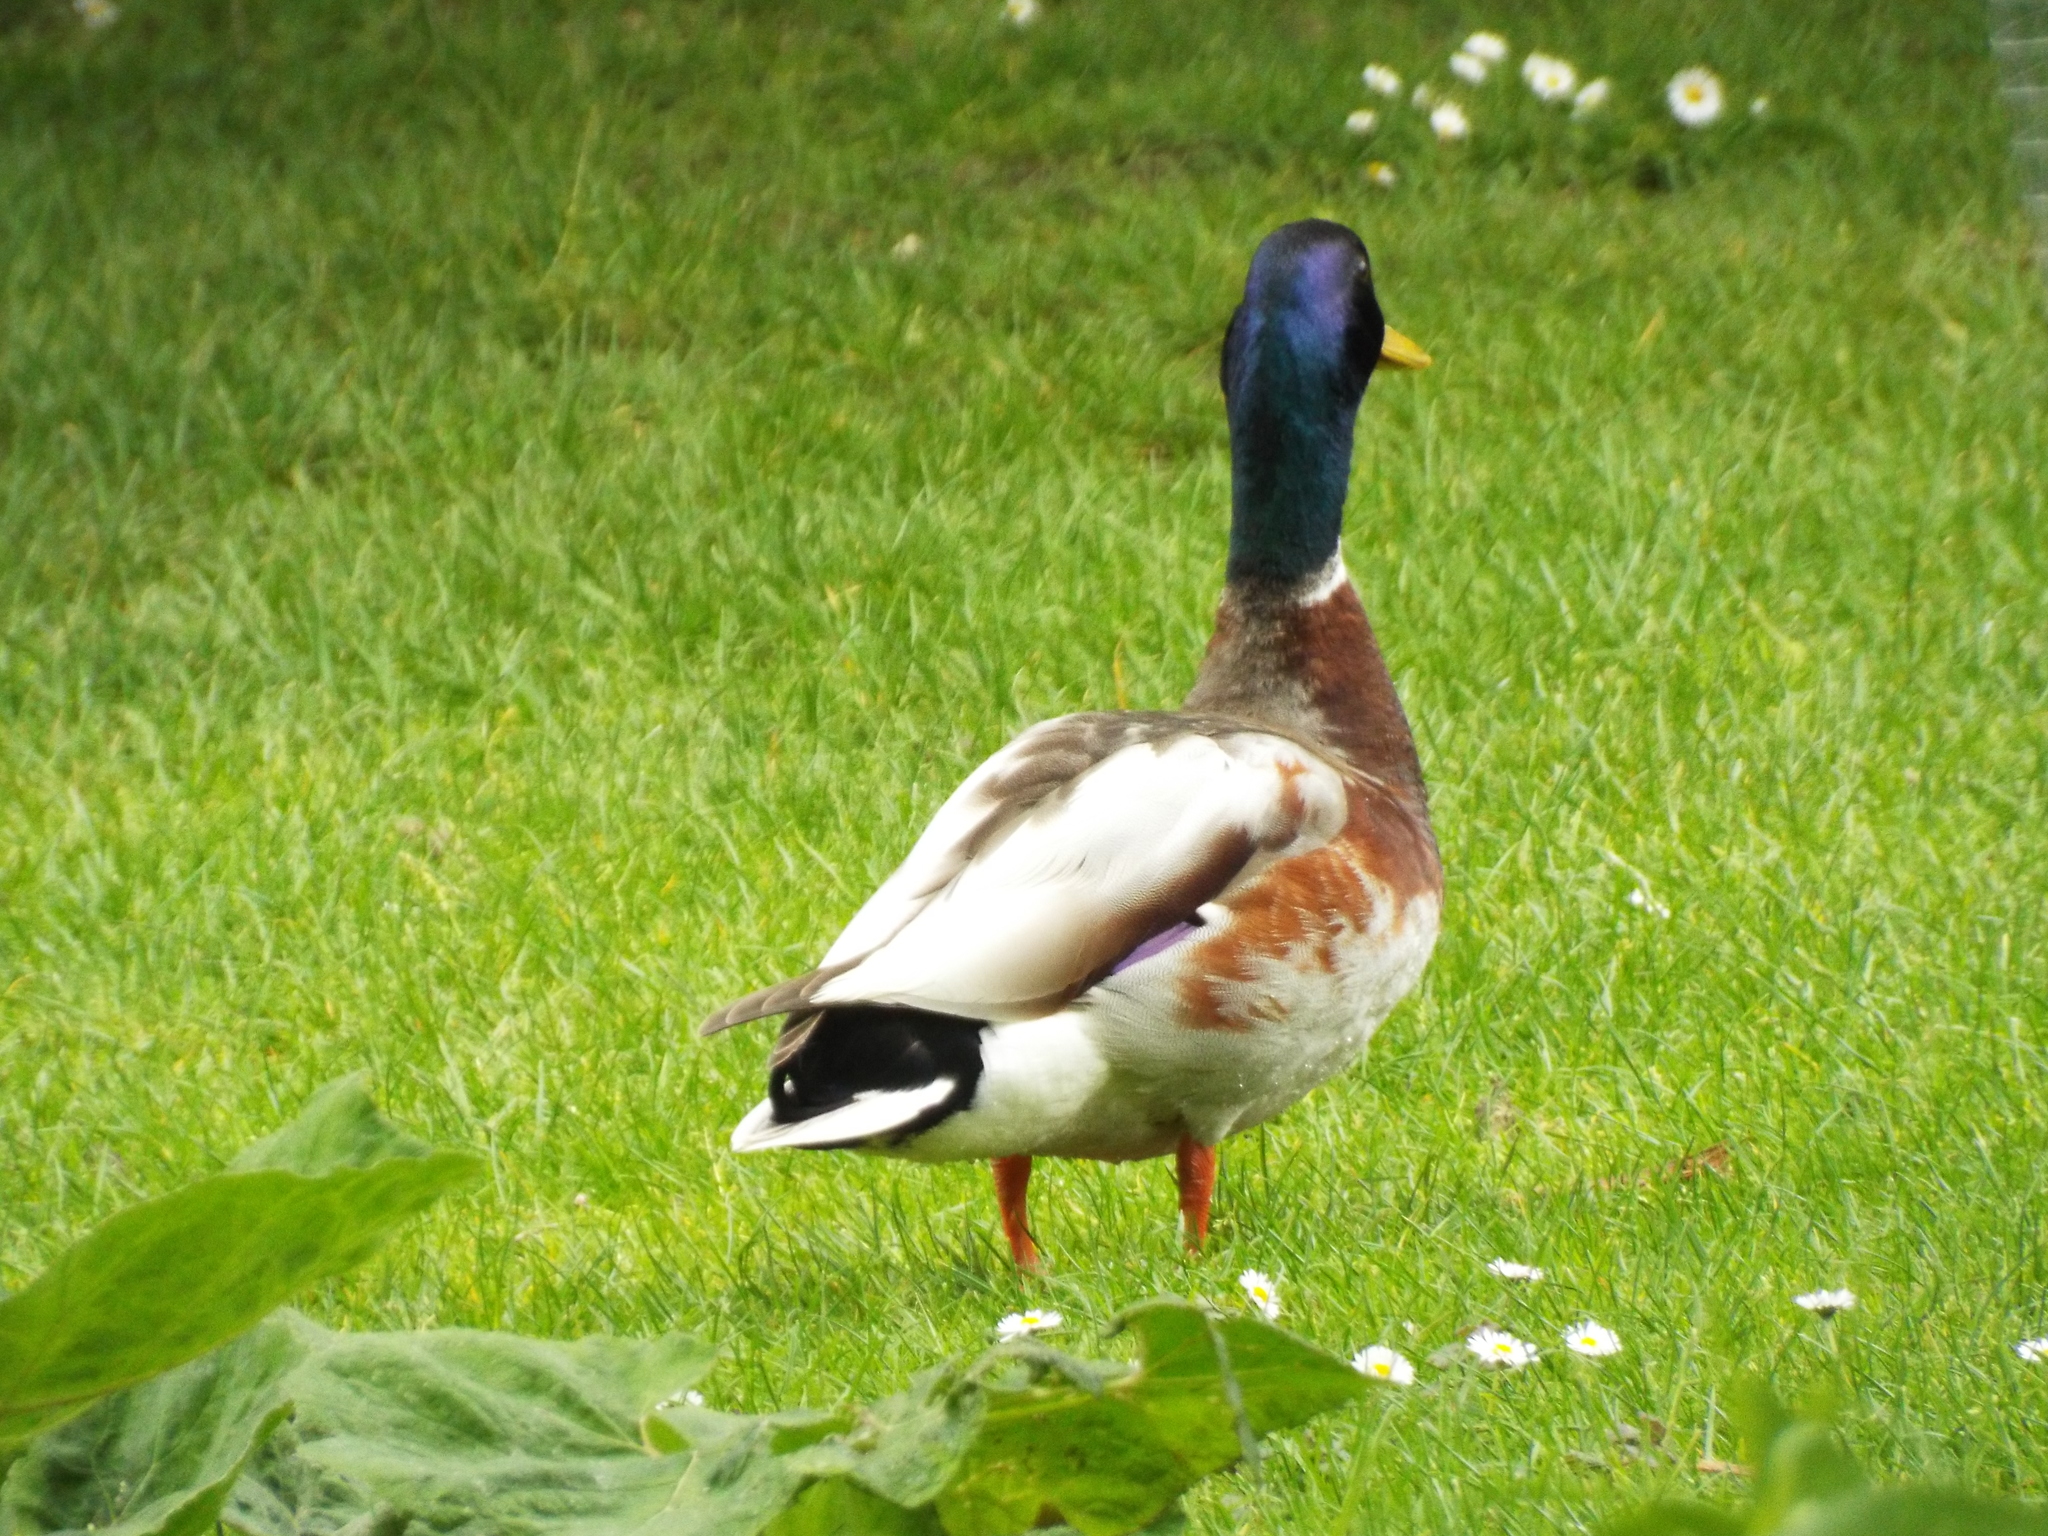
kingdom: Animalia
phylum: Chordata
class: Aves
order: Anseriformes
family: Anatidae
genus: Anas
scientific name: Anas platyrhynchos
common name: Mallard
